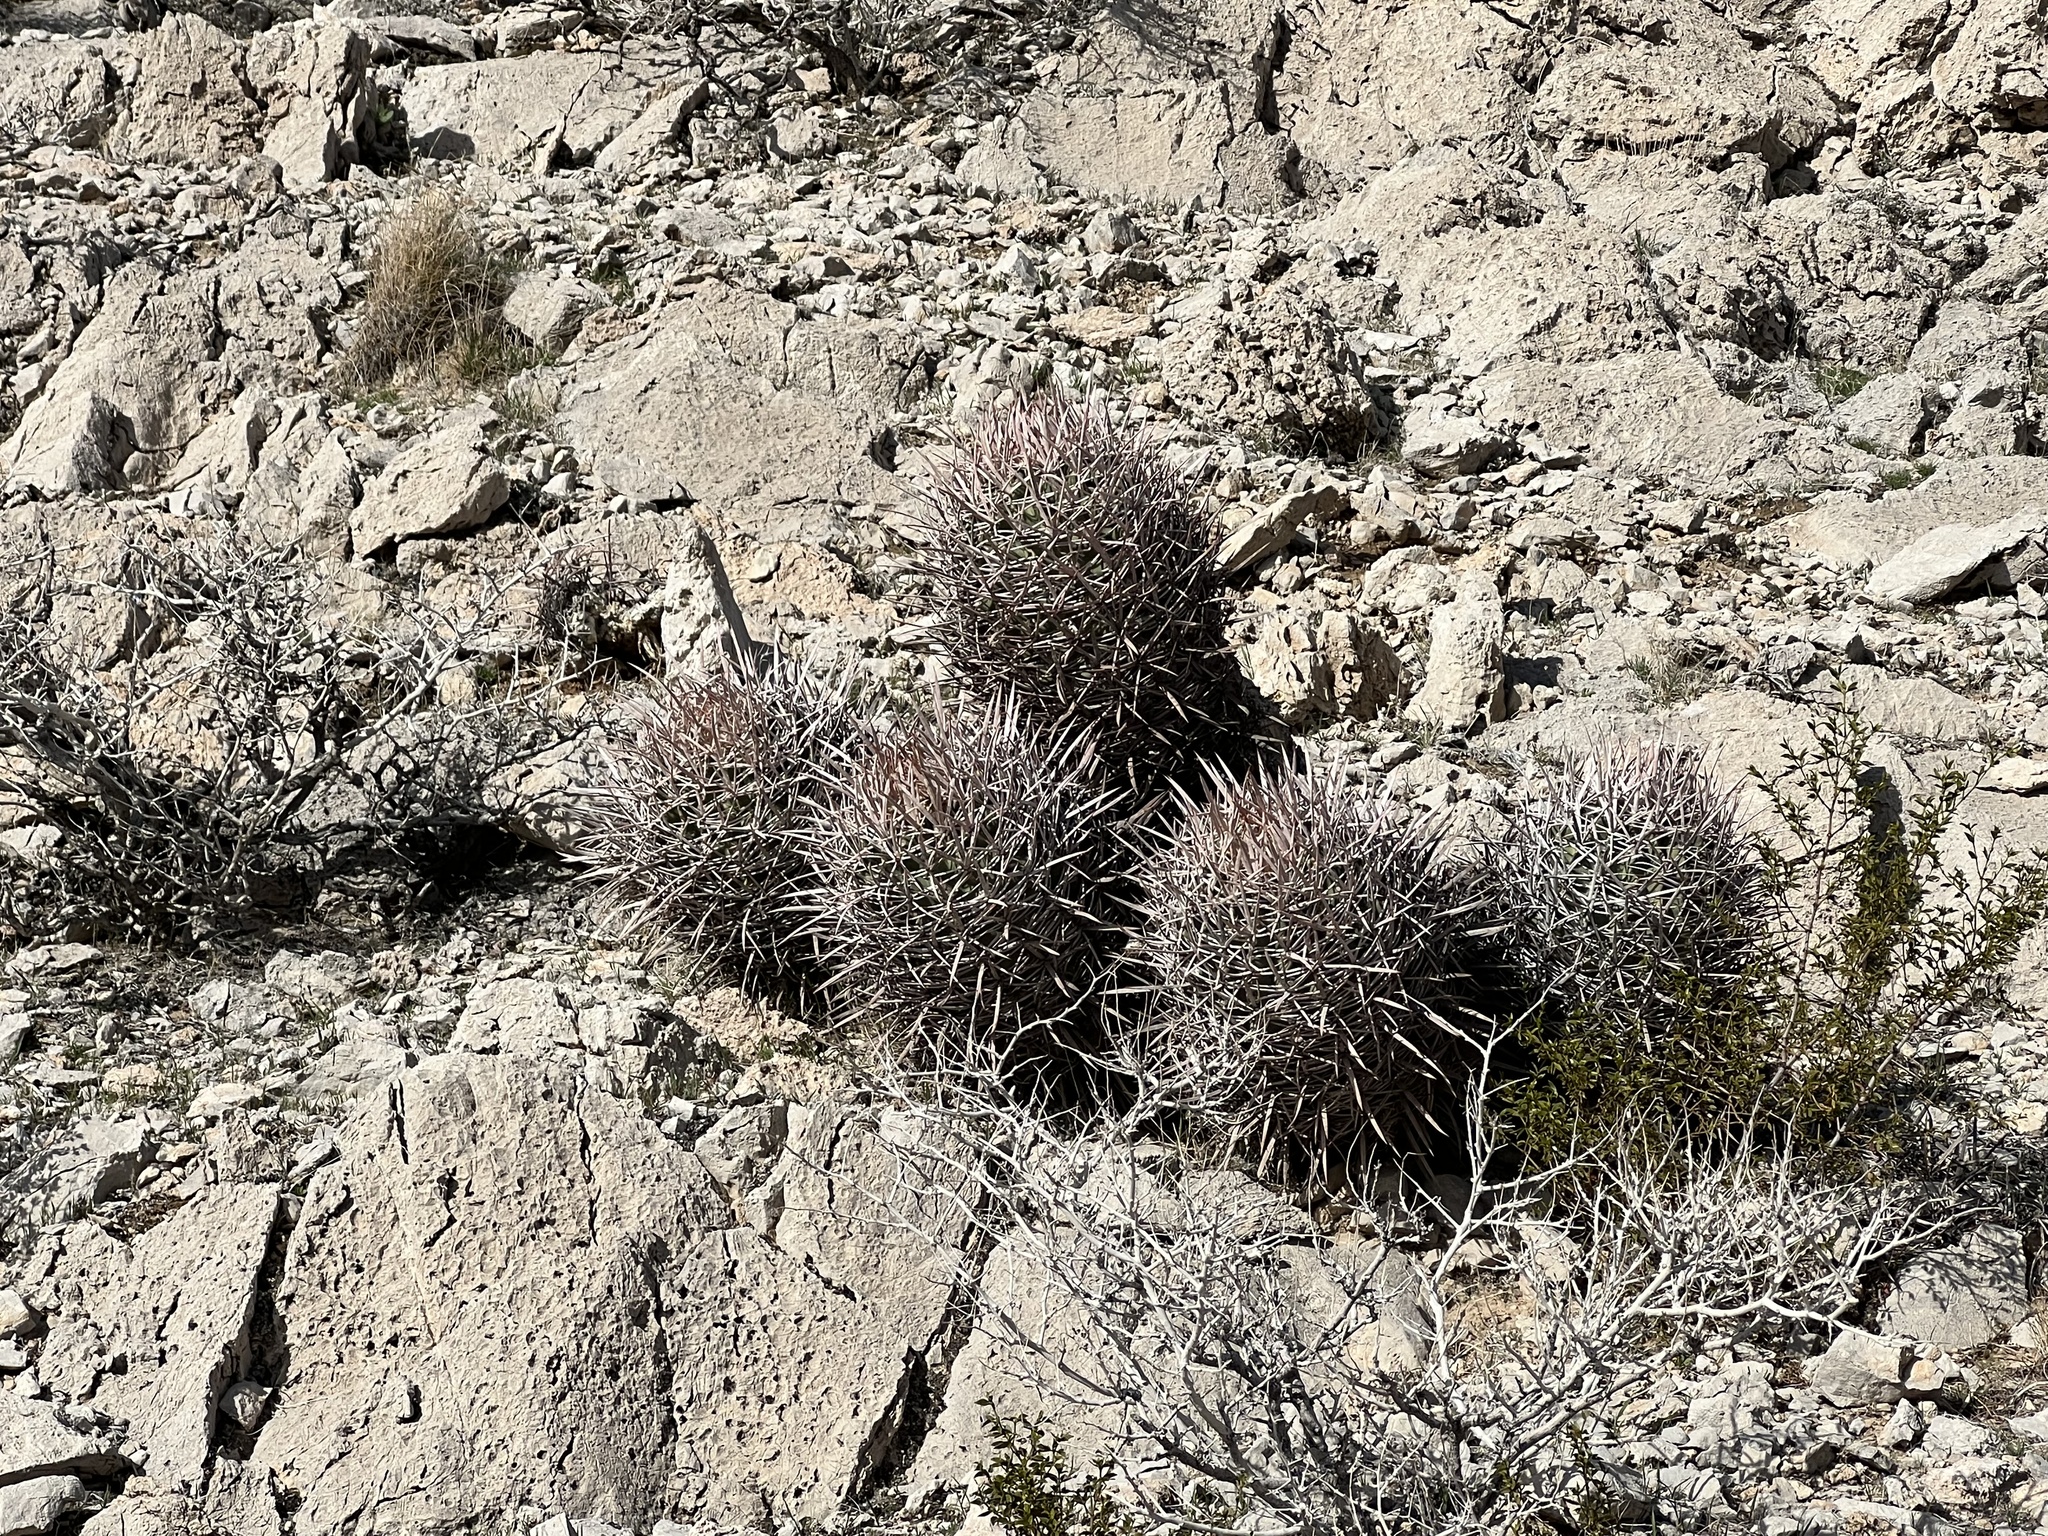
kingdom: Plantae
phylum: Tracheophyta
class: Magnoliopsida
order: Caryophyllales
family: Cactaceae
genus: Echinocactus
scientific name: Echinocactus polycephalus
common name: Cottontop cactus
